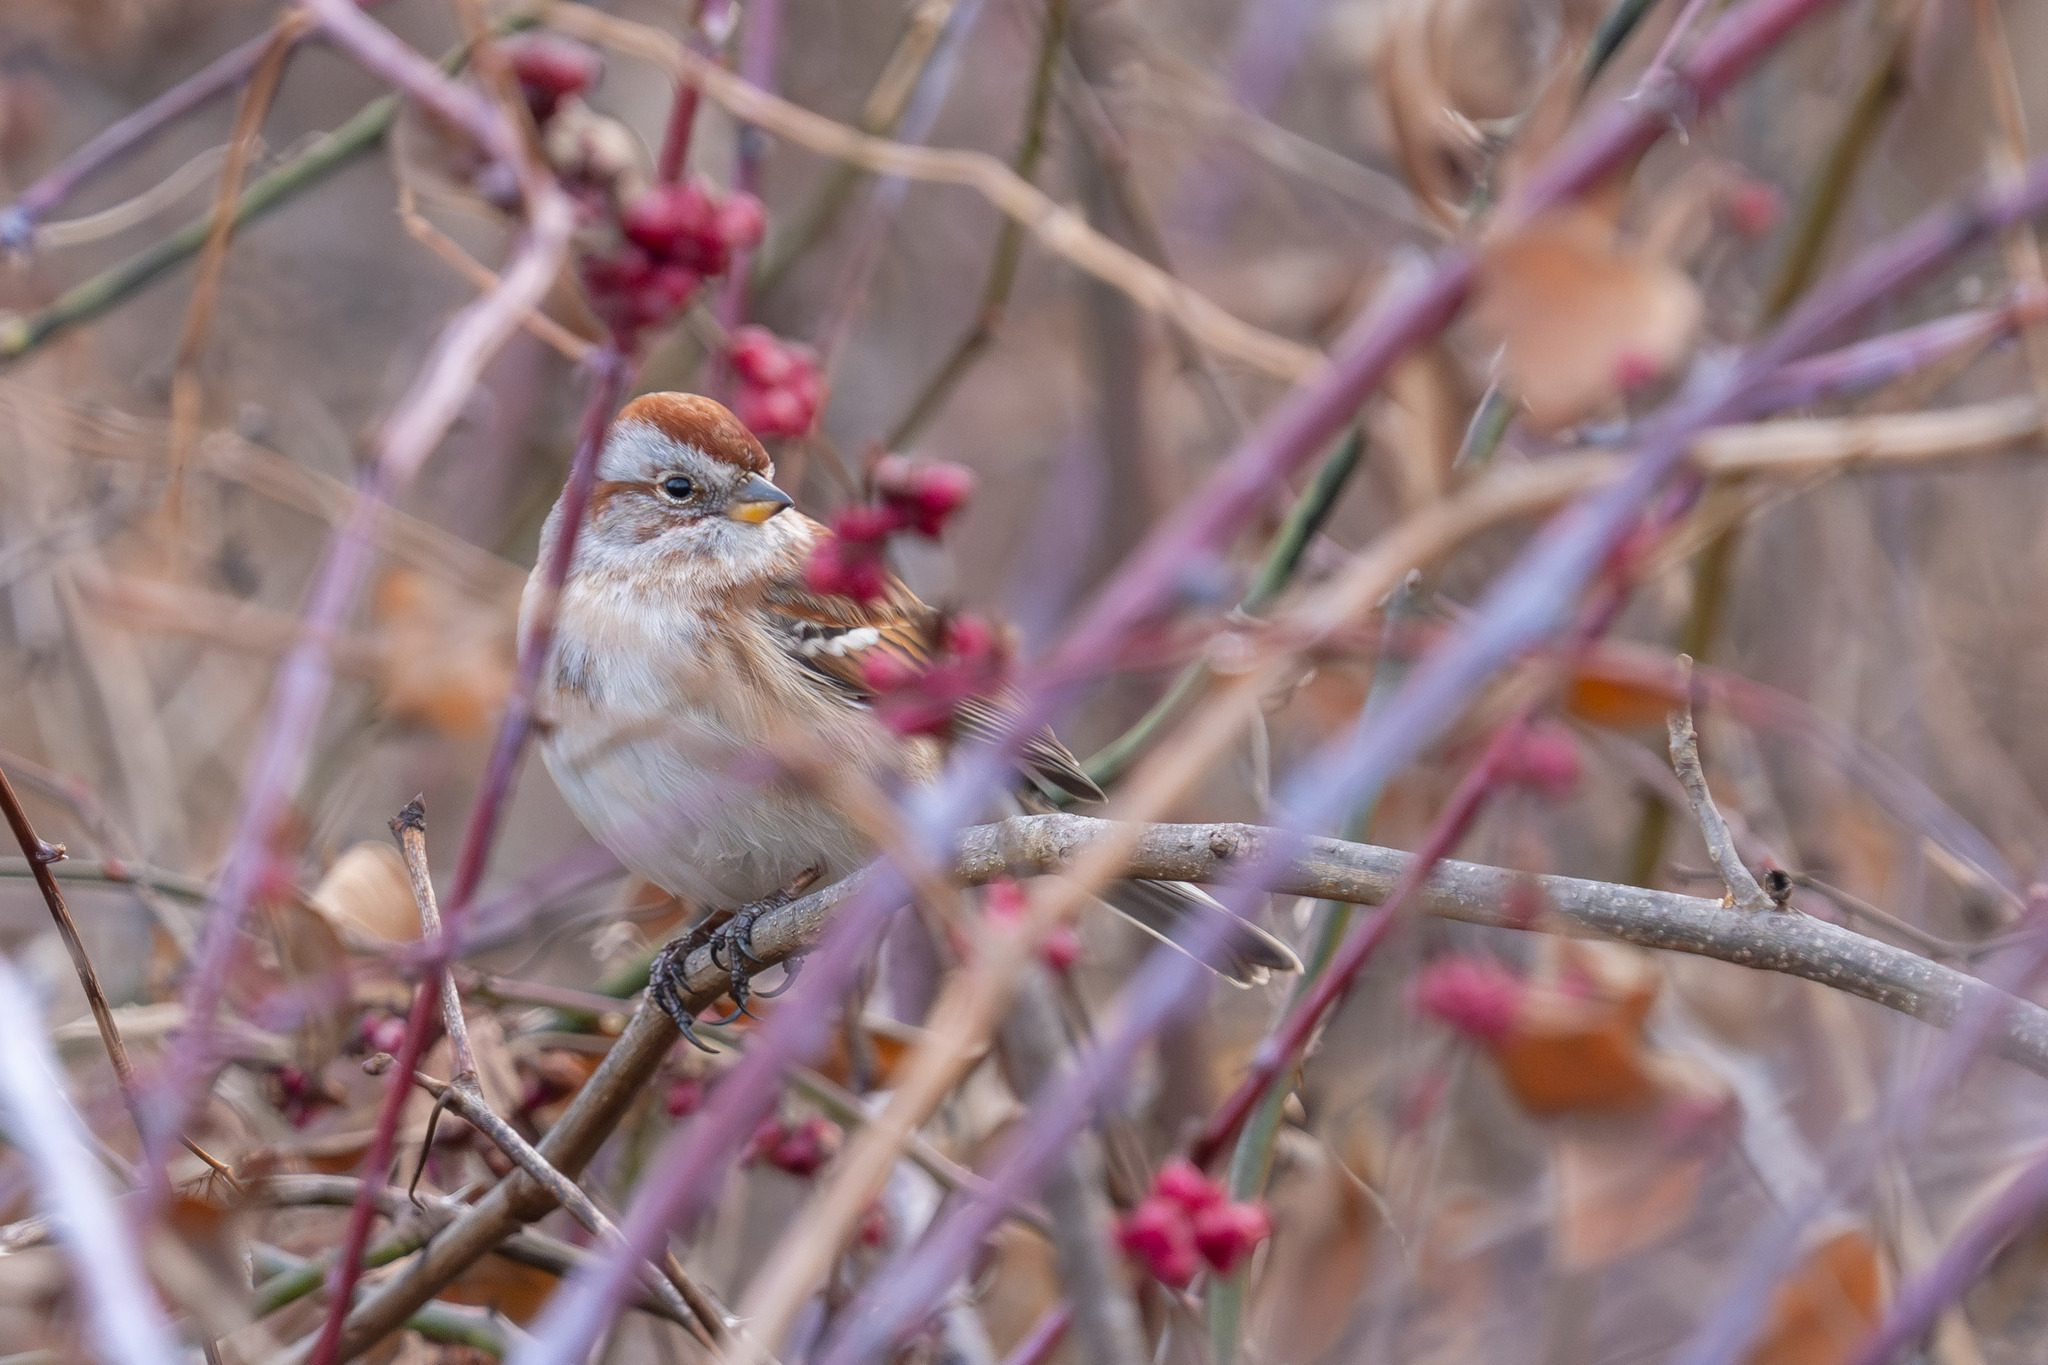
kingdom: Animalia
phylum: Chordata
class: Aves
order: Passeriformes
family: Passerellidae
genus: Spizelloides
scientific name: Spizelloides arborea
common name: American tree sparrow
